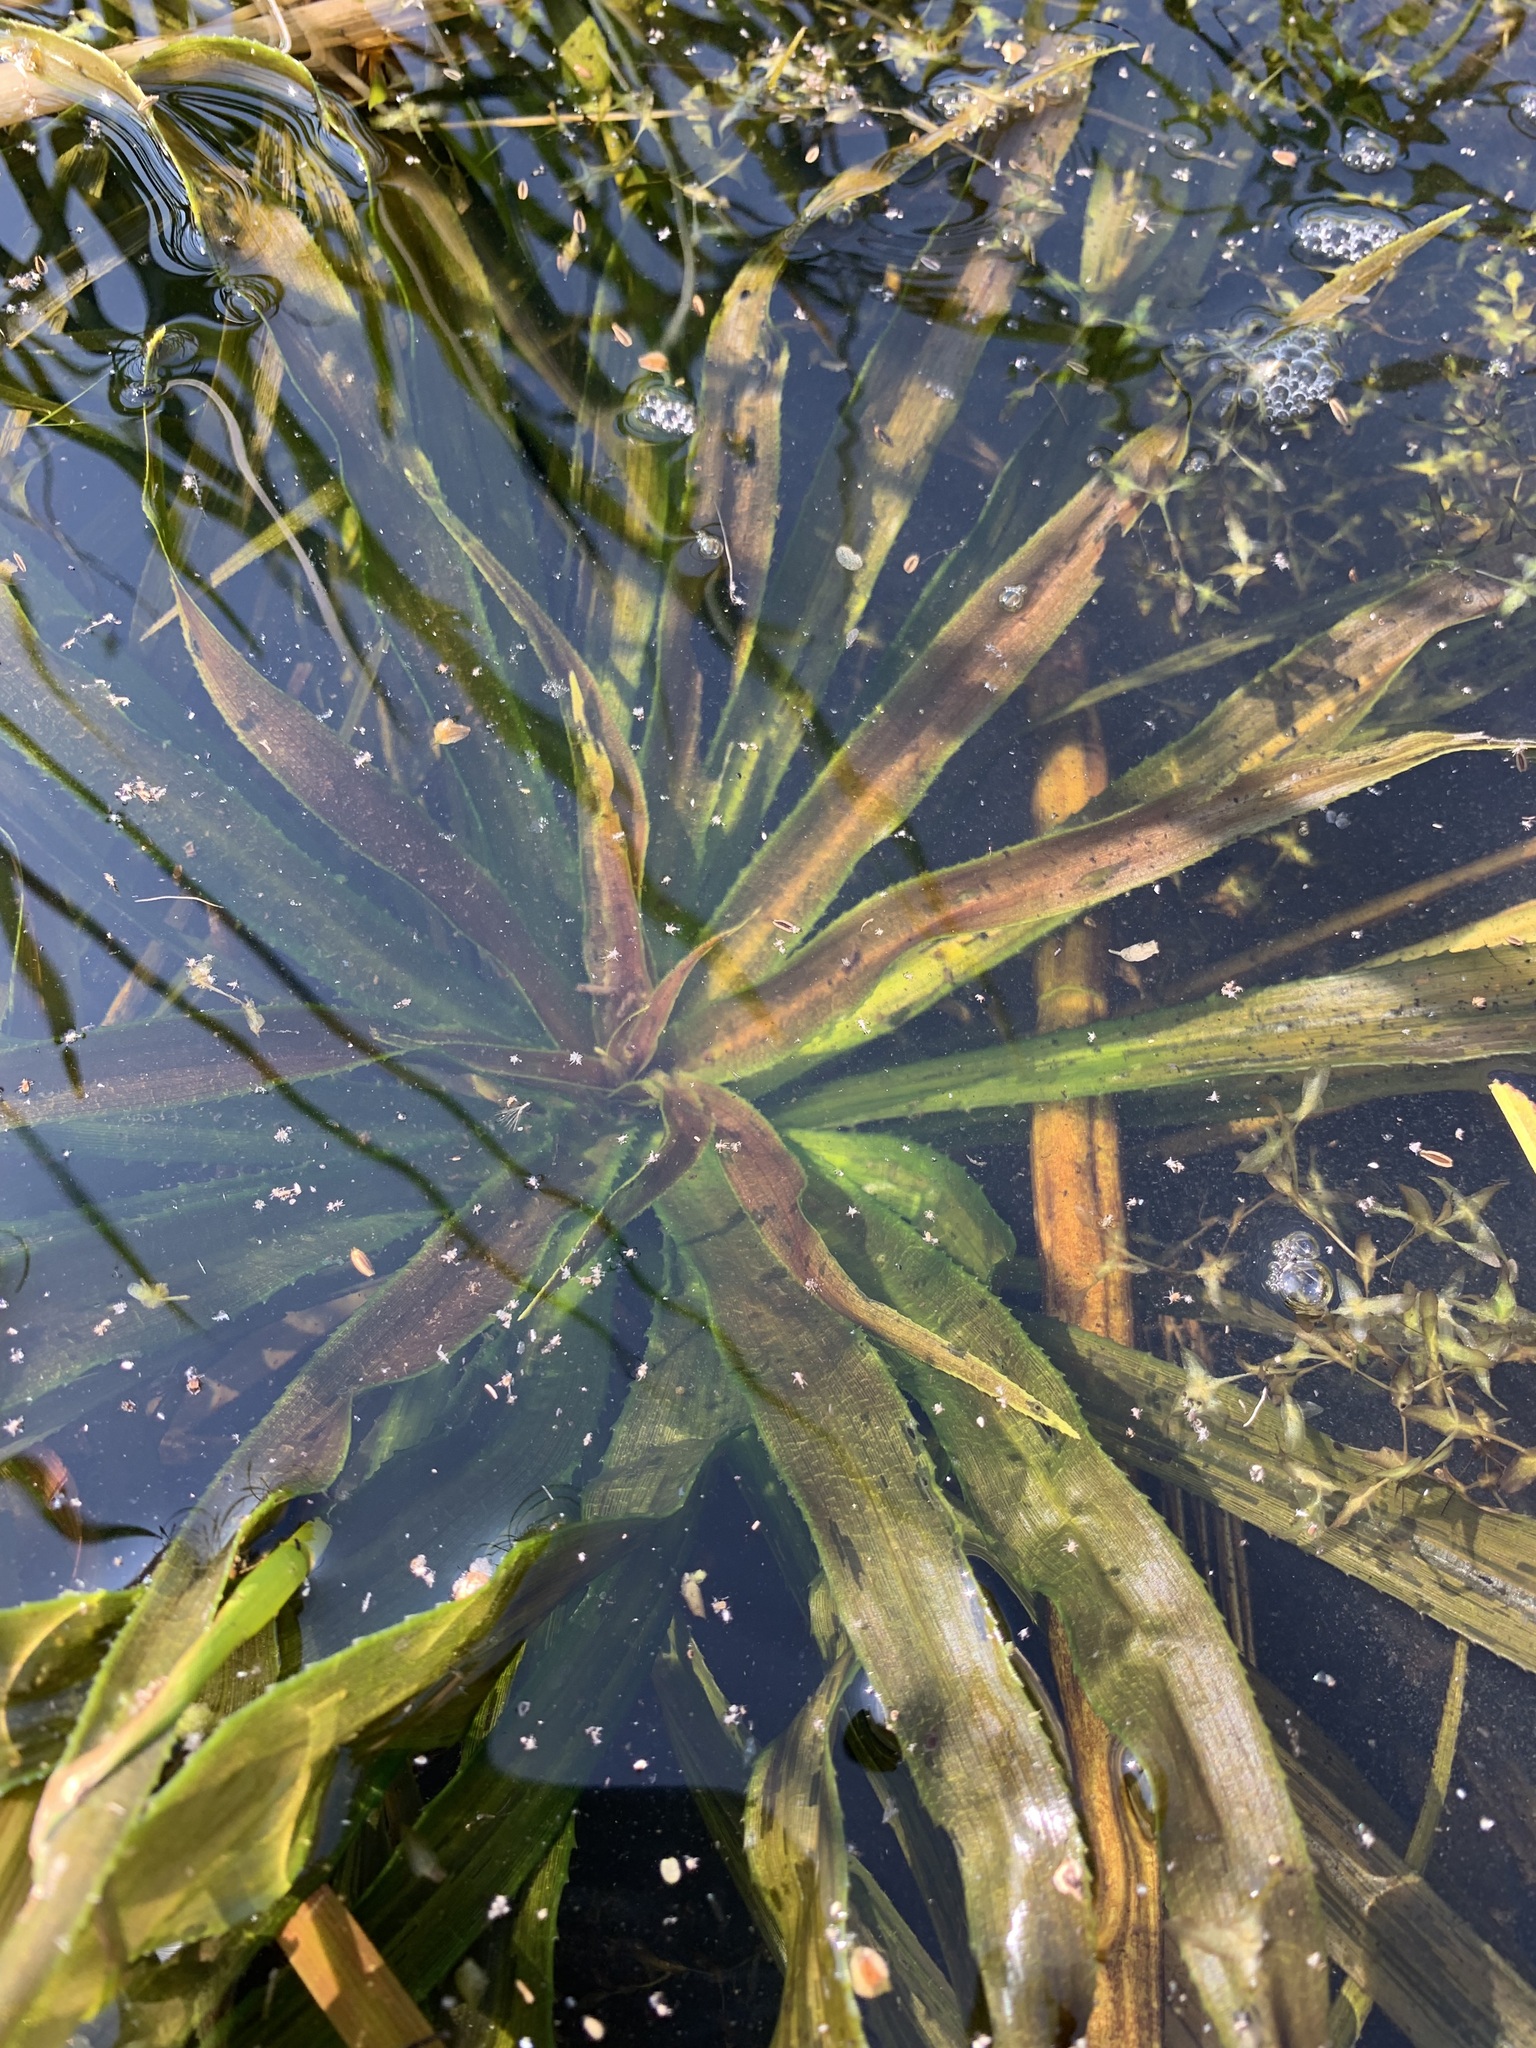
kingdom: Plantae
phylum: Tracheophyta
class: Liliopsida
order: Alismatales
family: Hydrocharitaceae
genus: Stratiotes
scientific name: Stratiotes aloides
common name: Water-soldier
